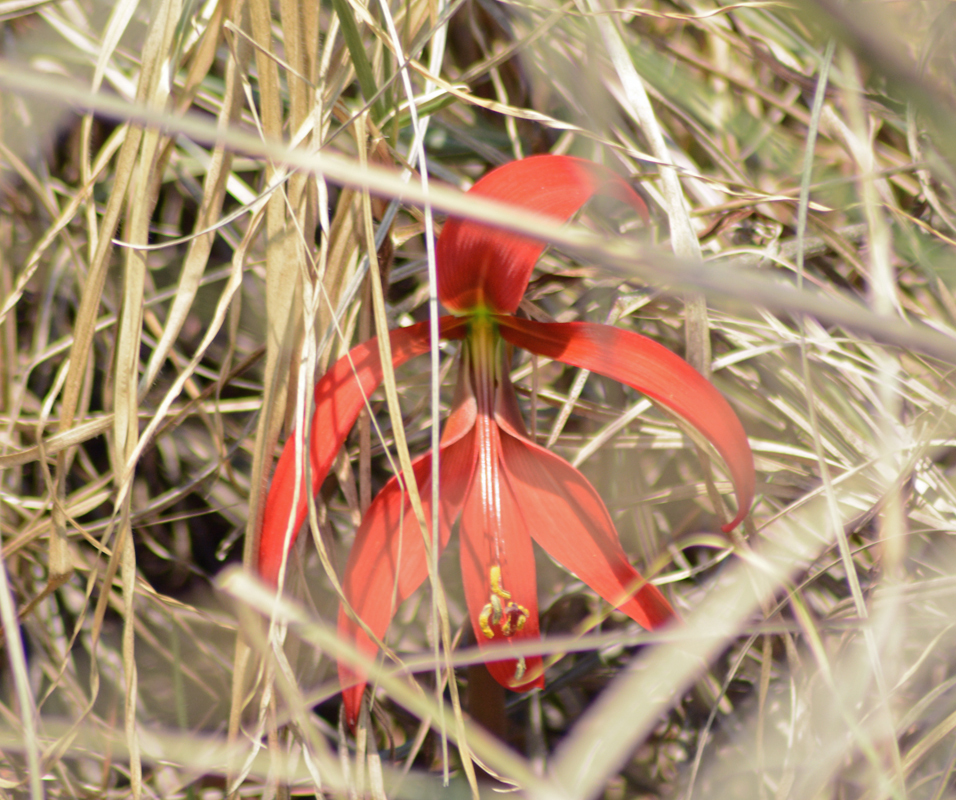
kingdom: Plantae
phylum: Tracheophyta
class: Liliopsida
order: Asparagales
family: Amaryllidaceae
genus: Sprekelia
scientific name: Sprekelia formosissima
